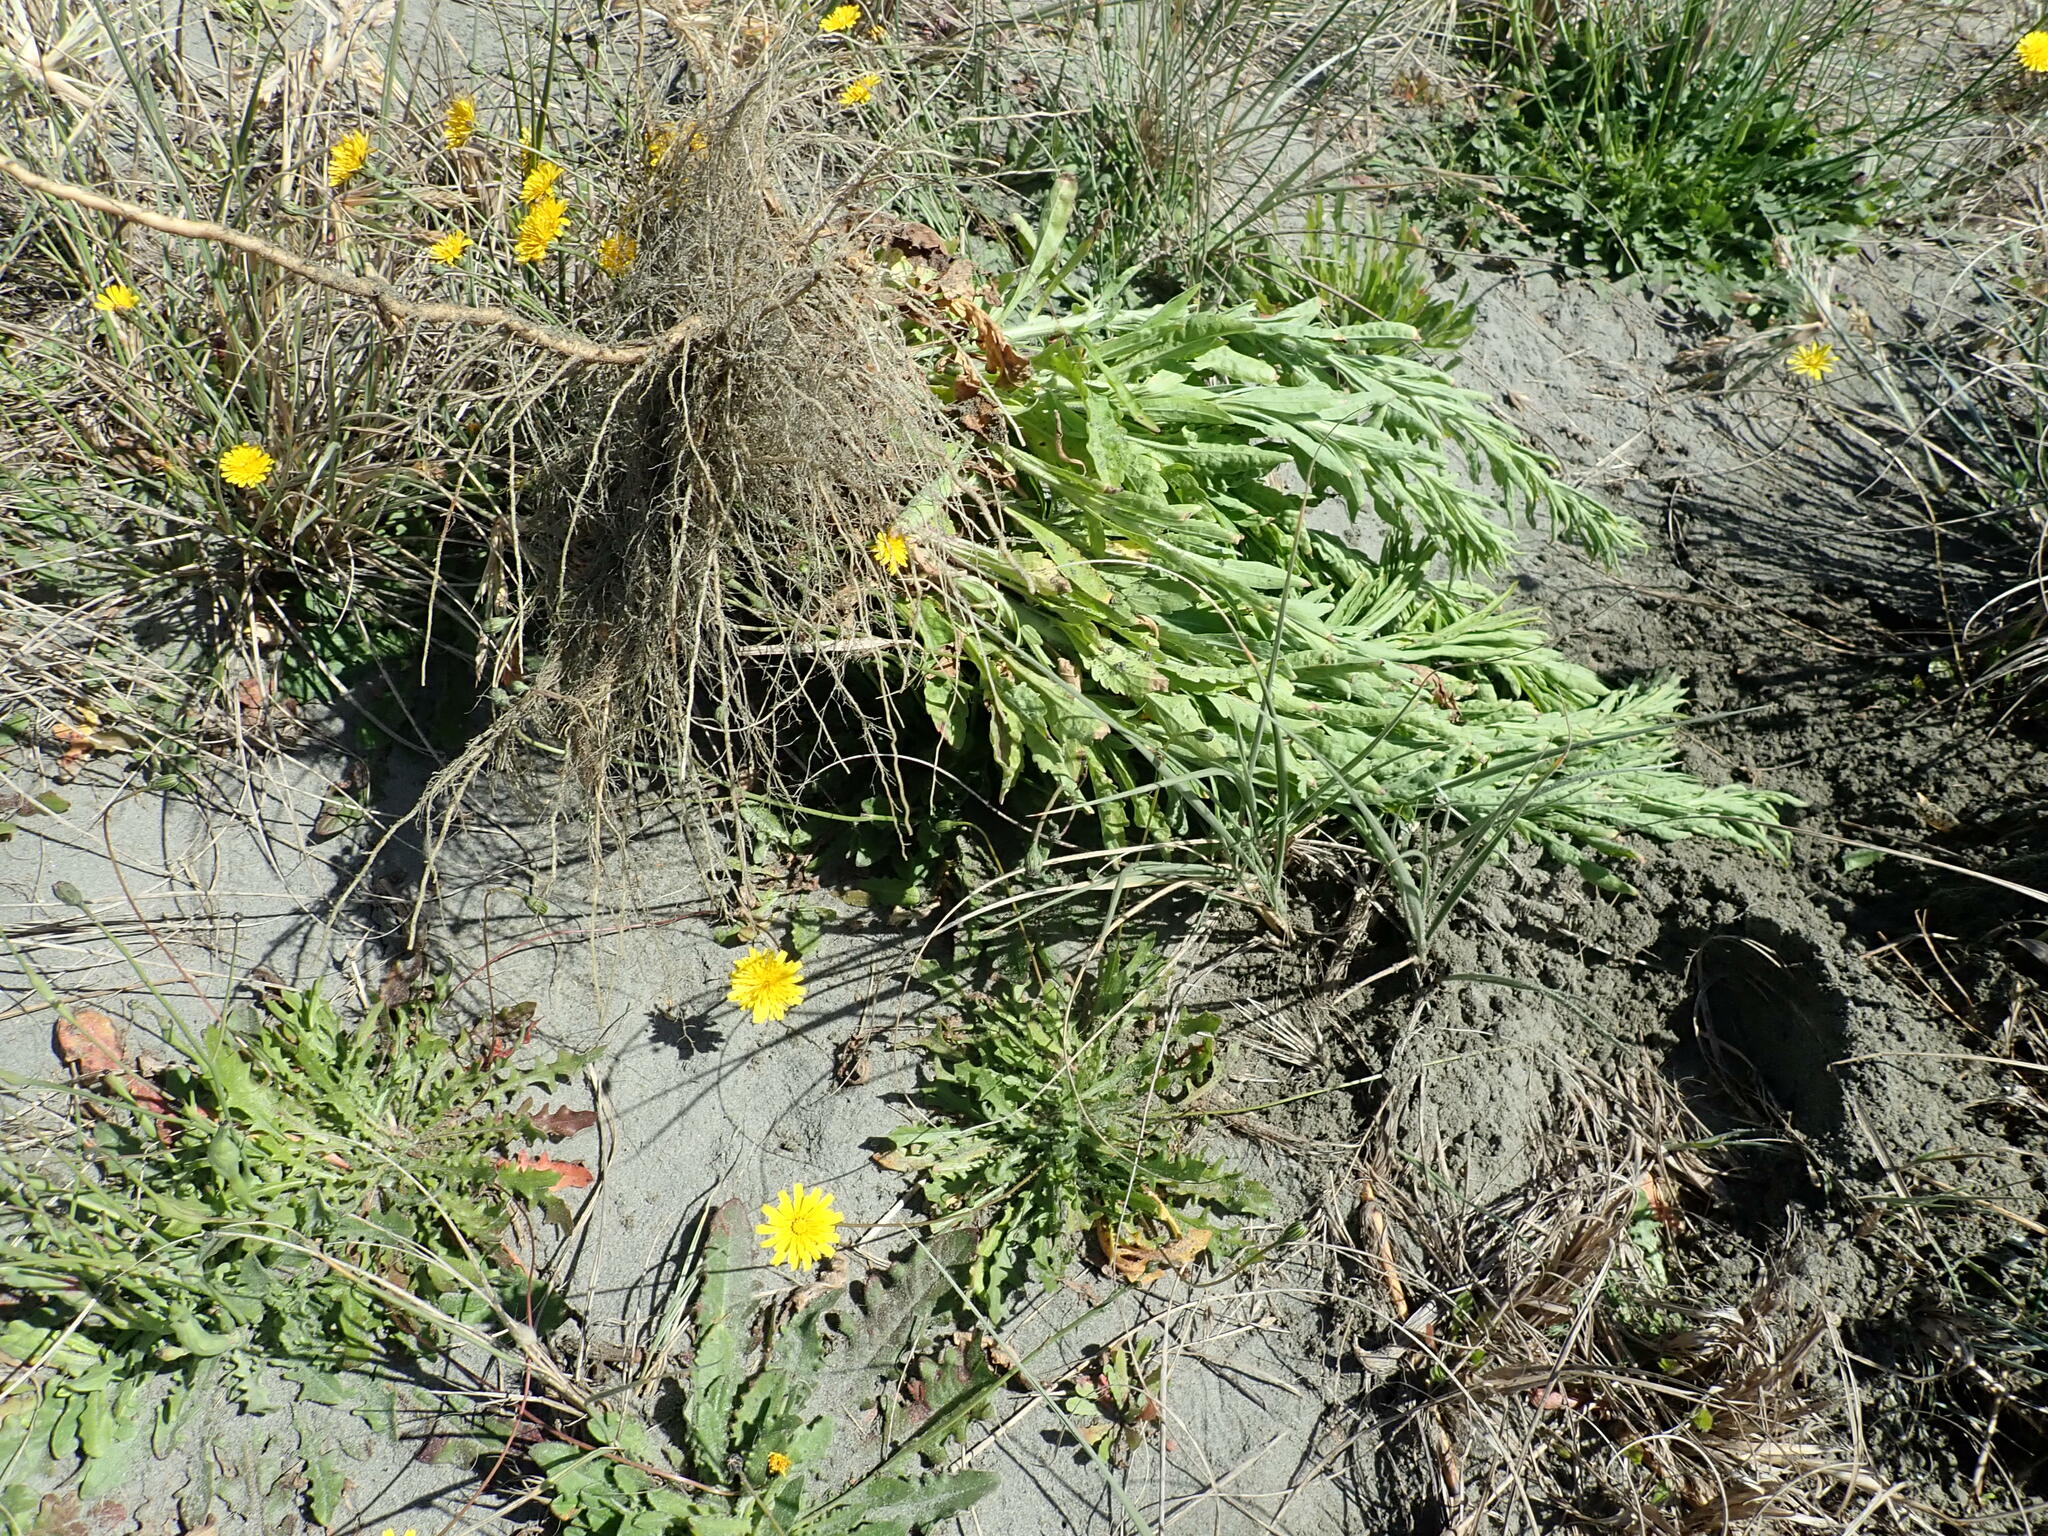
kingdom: Plantae
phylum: Tracheophyta
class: Magnoliopsida
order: Asterales
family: Asteraceae
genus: Erigeron
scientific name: Erigeron sumatrensis
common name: Daisy
